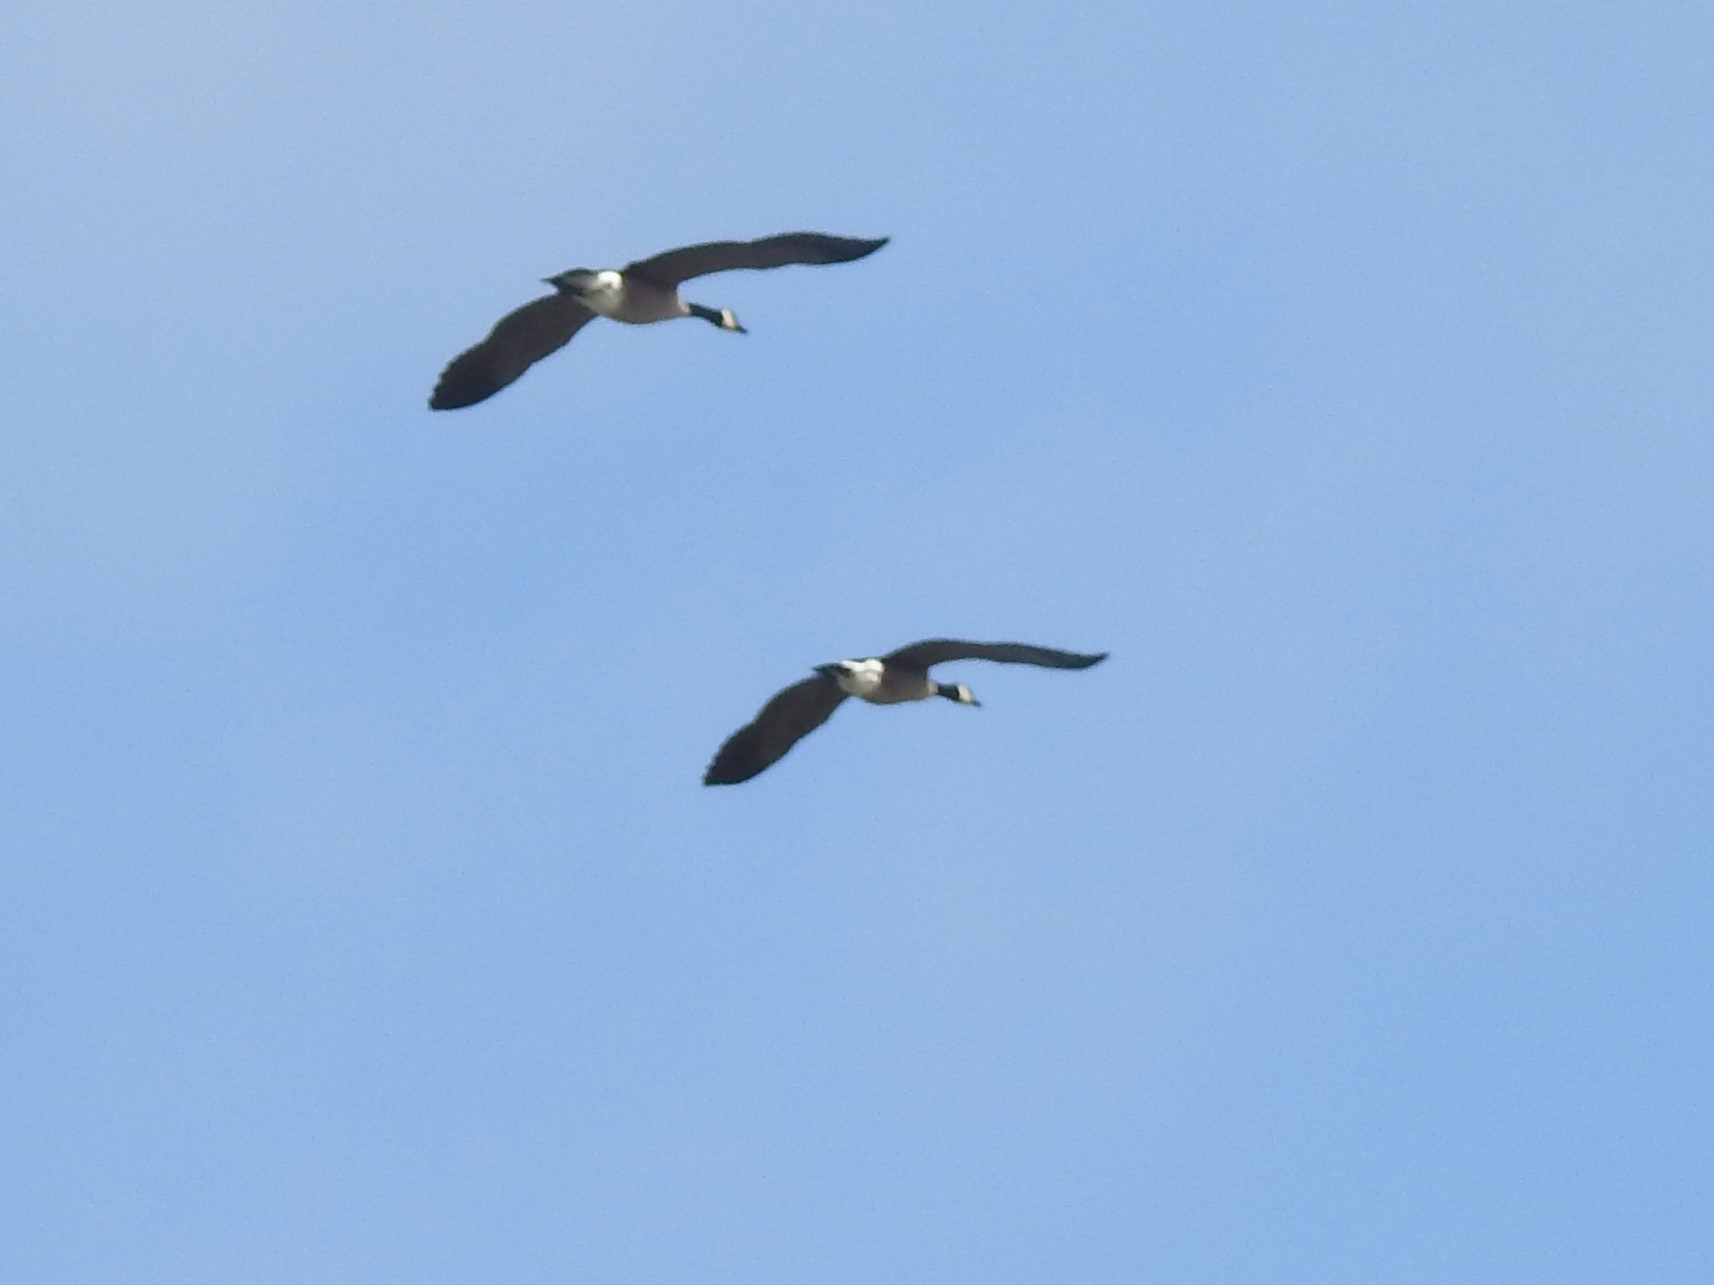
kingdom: Animalia
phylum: Chordata
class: Aves
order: Anseriformes
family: Anatidae
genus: Branta
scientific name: Branta canadensis
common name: Canada goose
